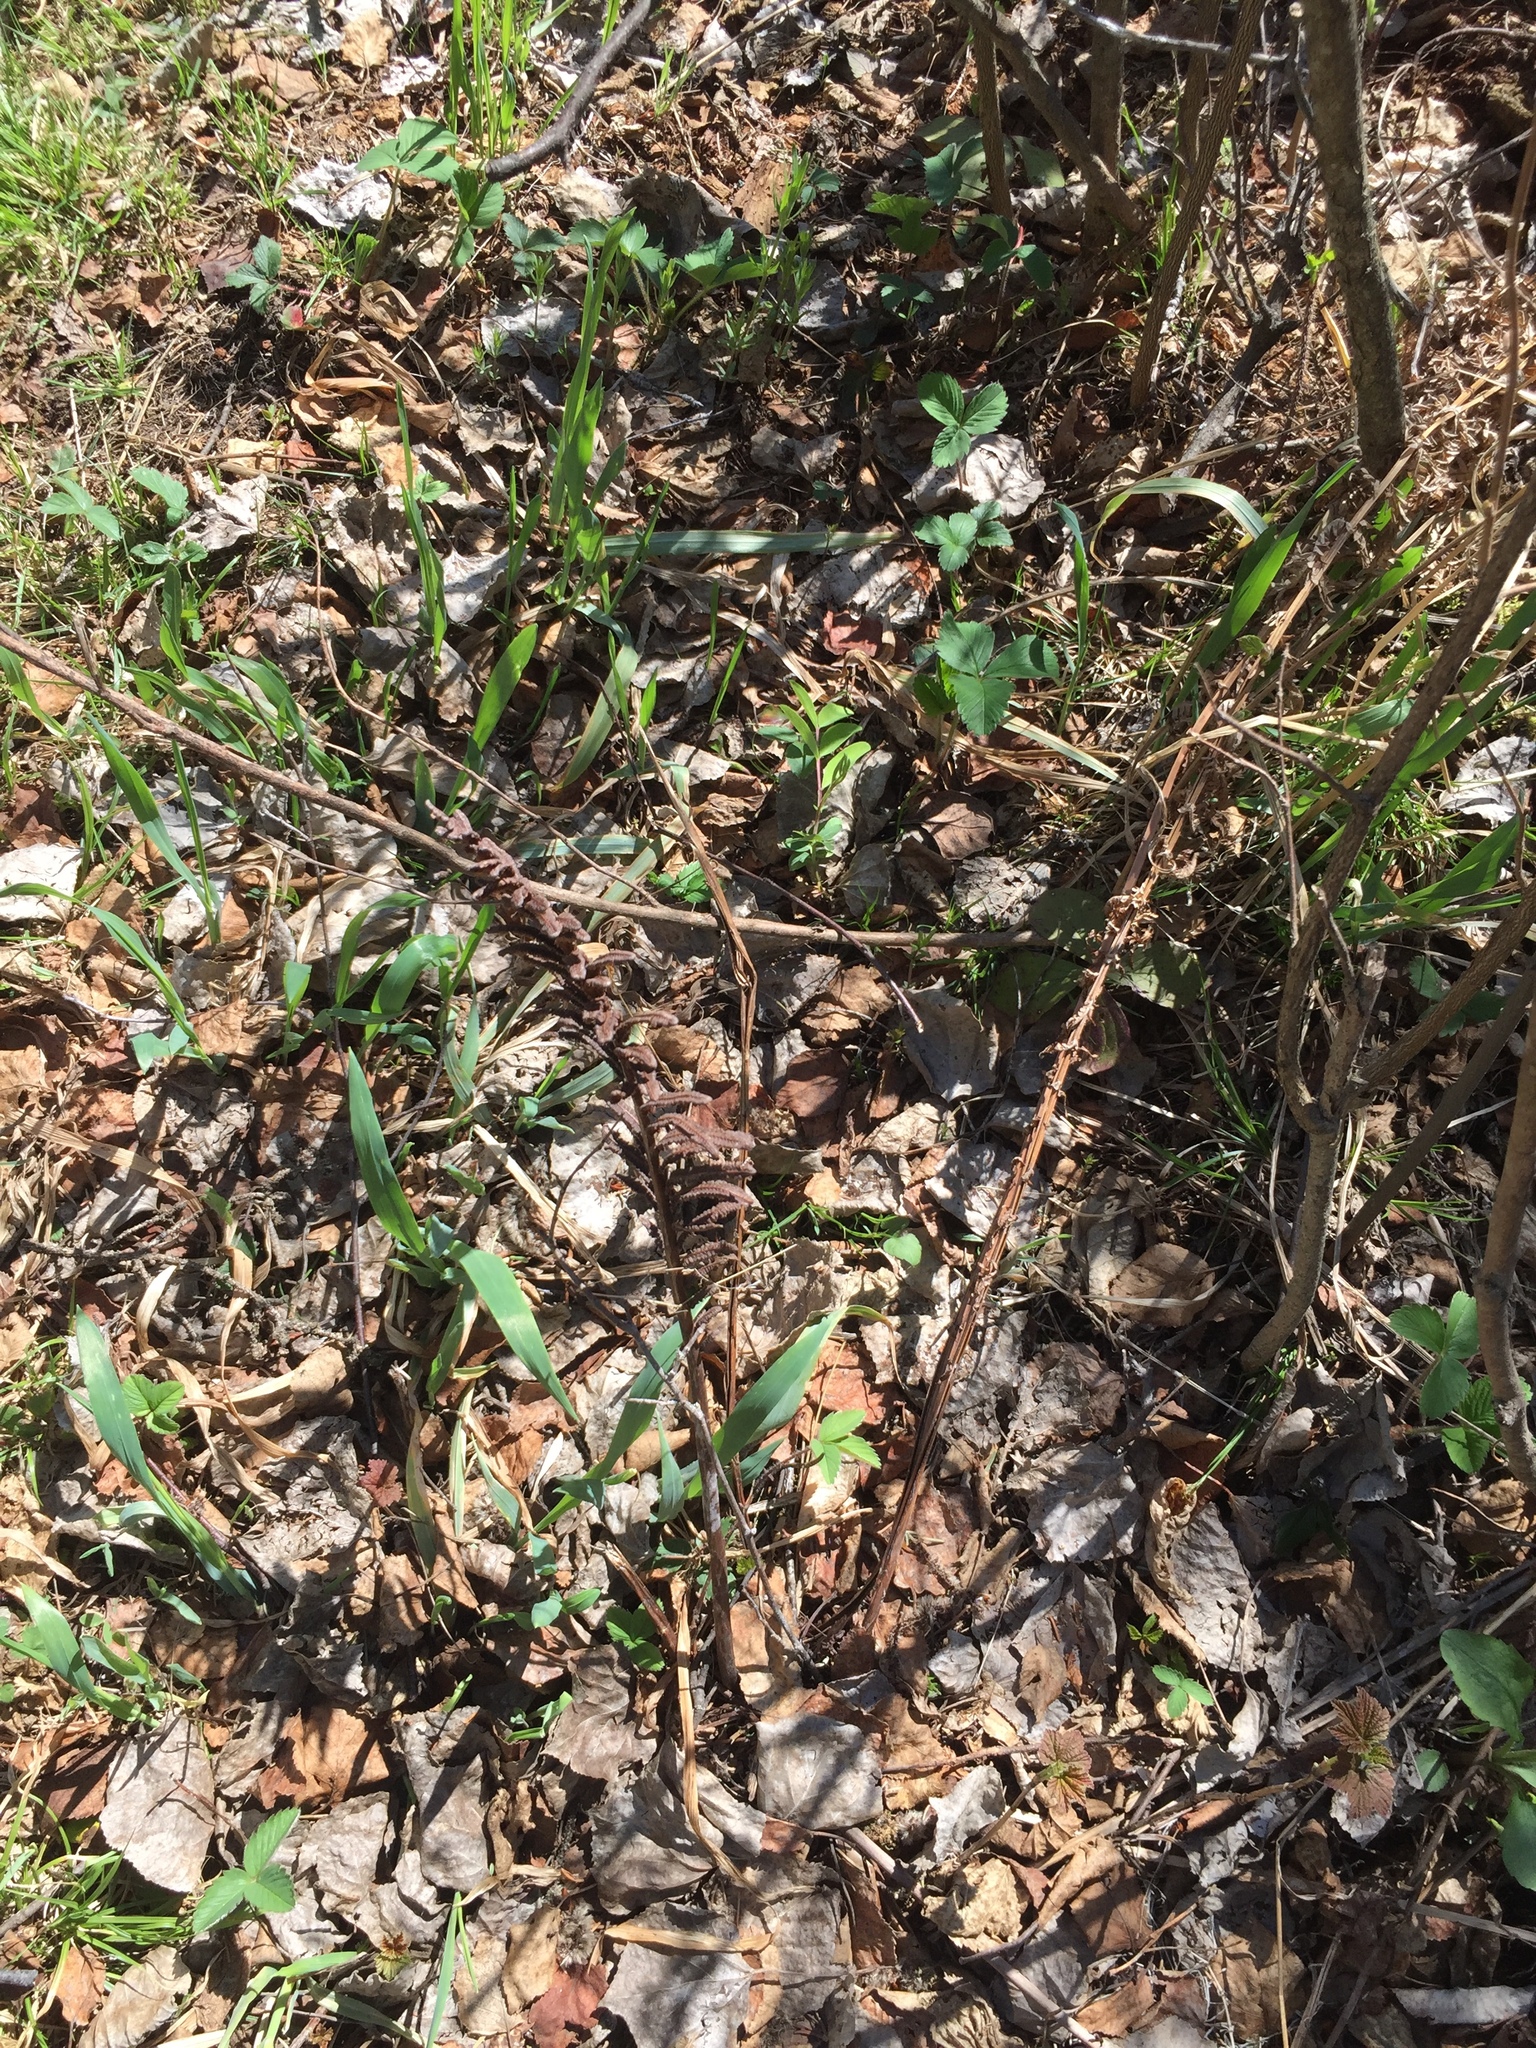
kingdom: Plantae
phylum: Tracheophyta
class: Polypodiopsida
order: Polypodiales
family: Onocleaceae
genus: Matteuccia
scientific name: Matteuccia struthiopteris
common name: Ostrich fern
